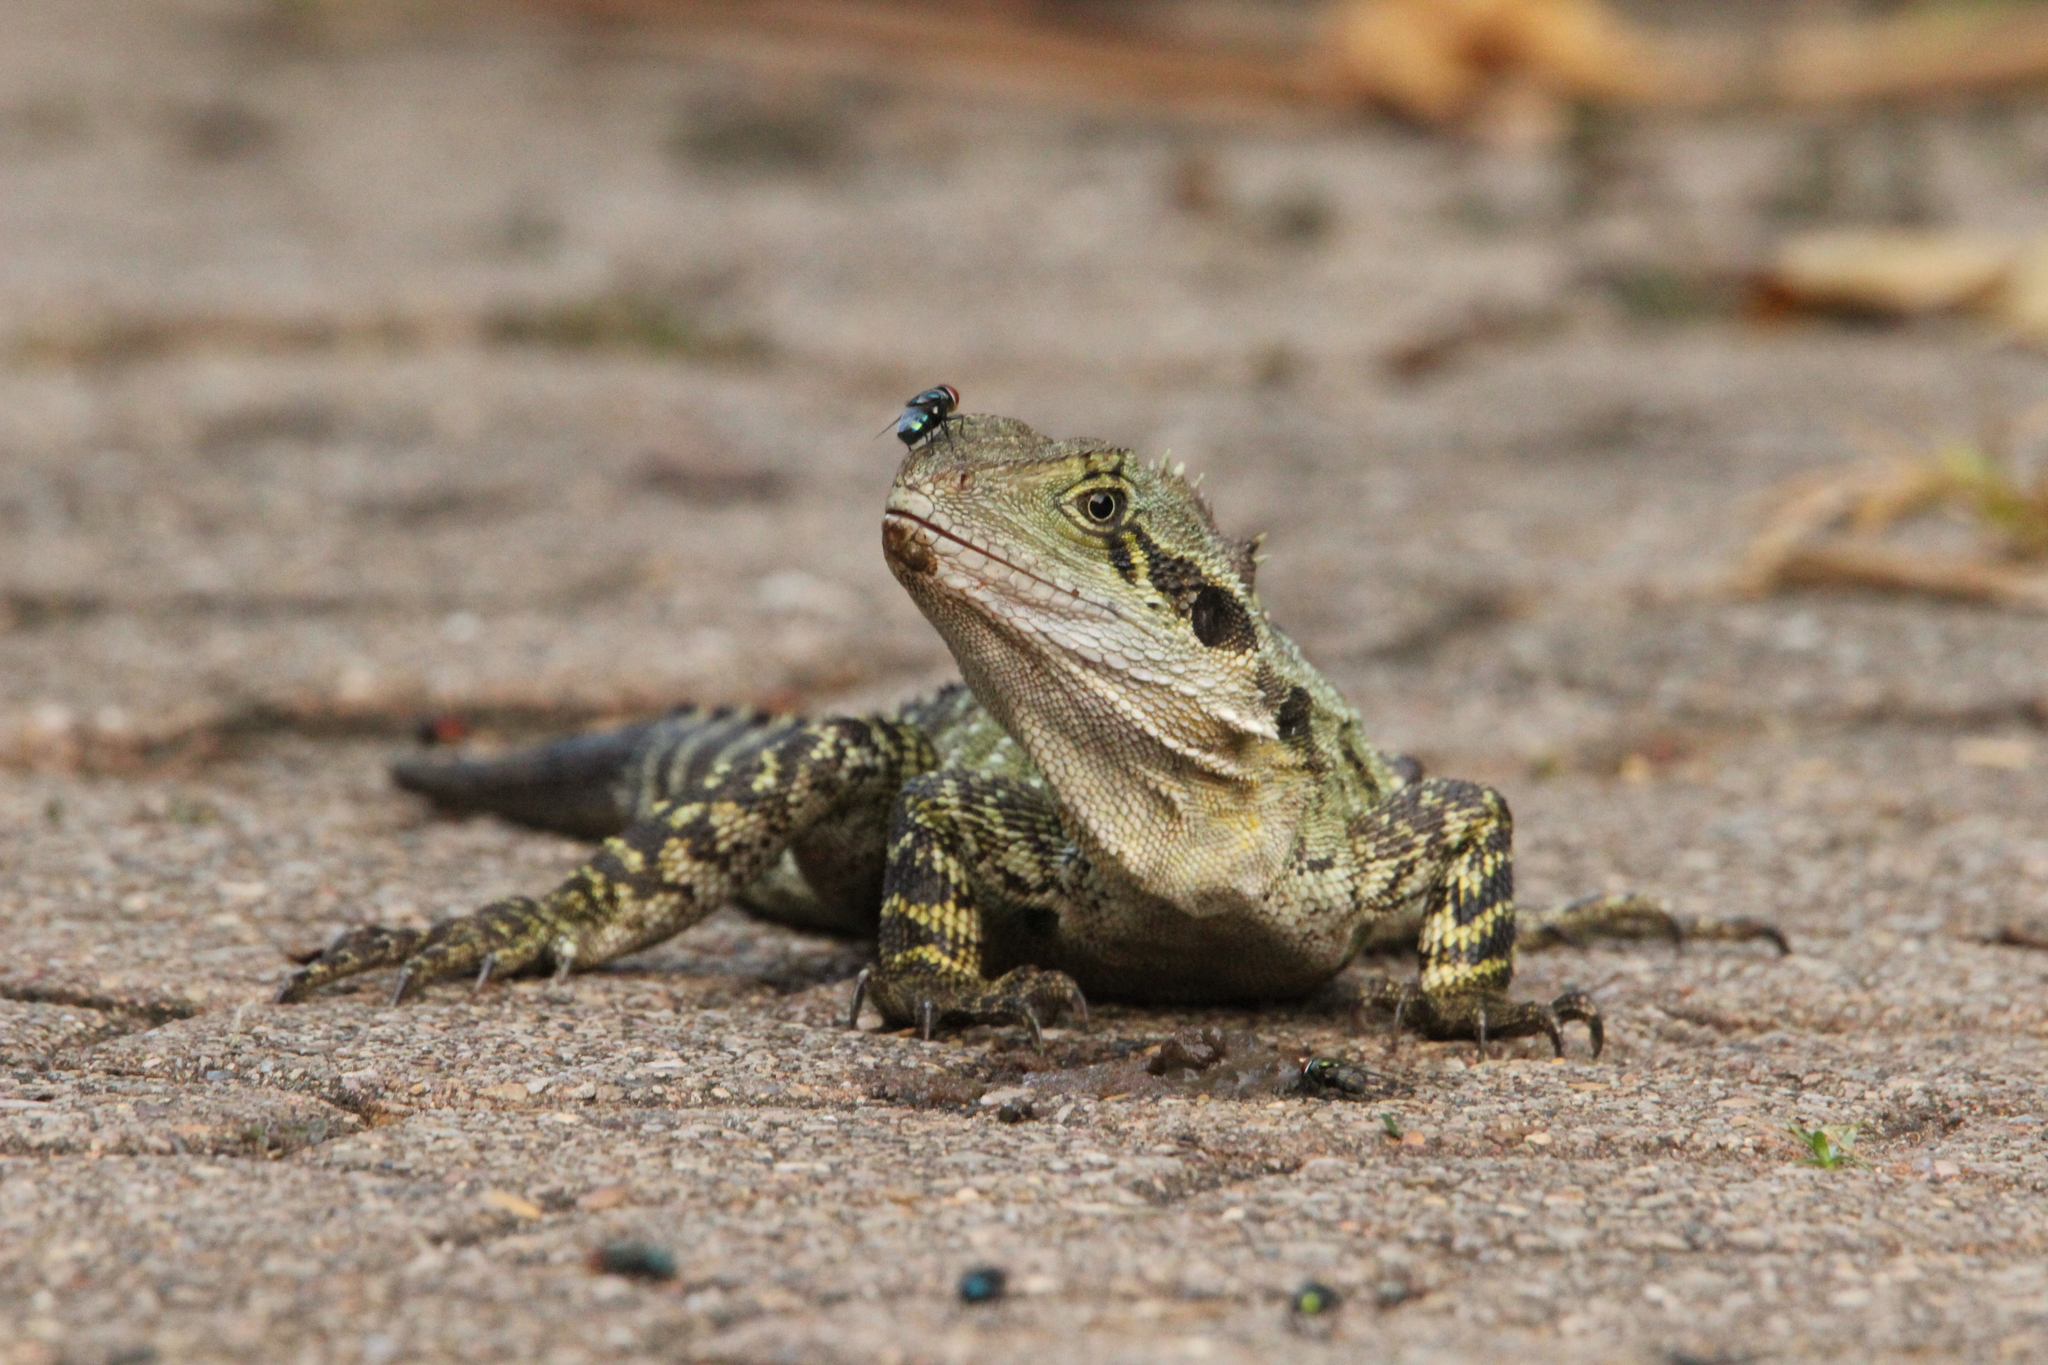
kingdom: Animalia
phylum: Chordata
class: Squamata
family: Agamidae
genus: Intellagama
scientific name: Intellagama lesueurii
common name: Eastern water dragon
